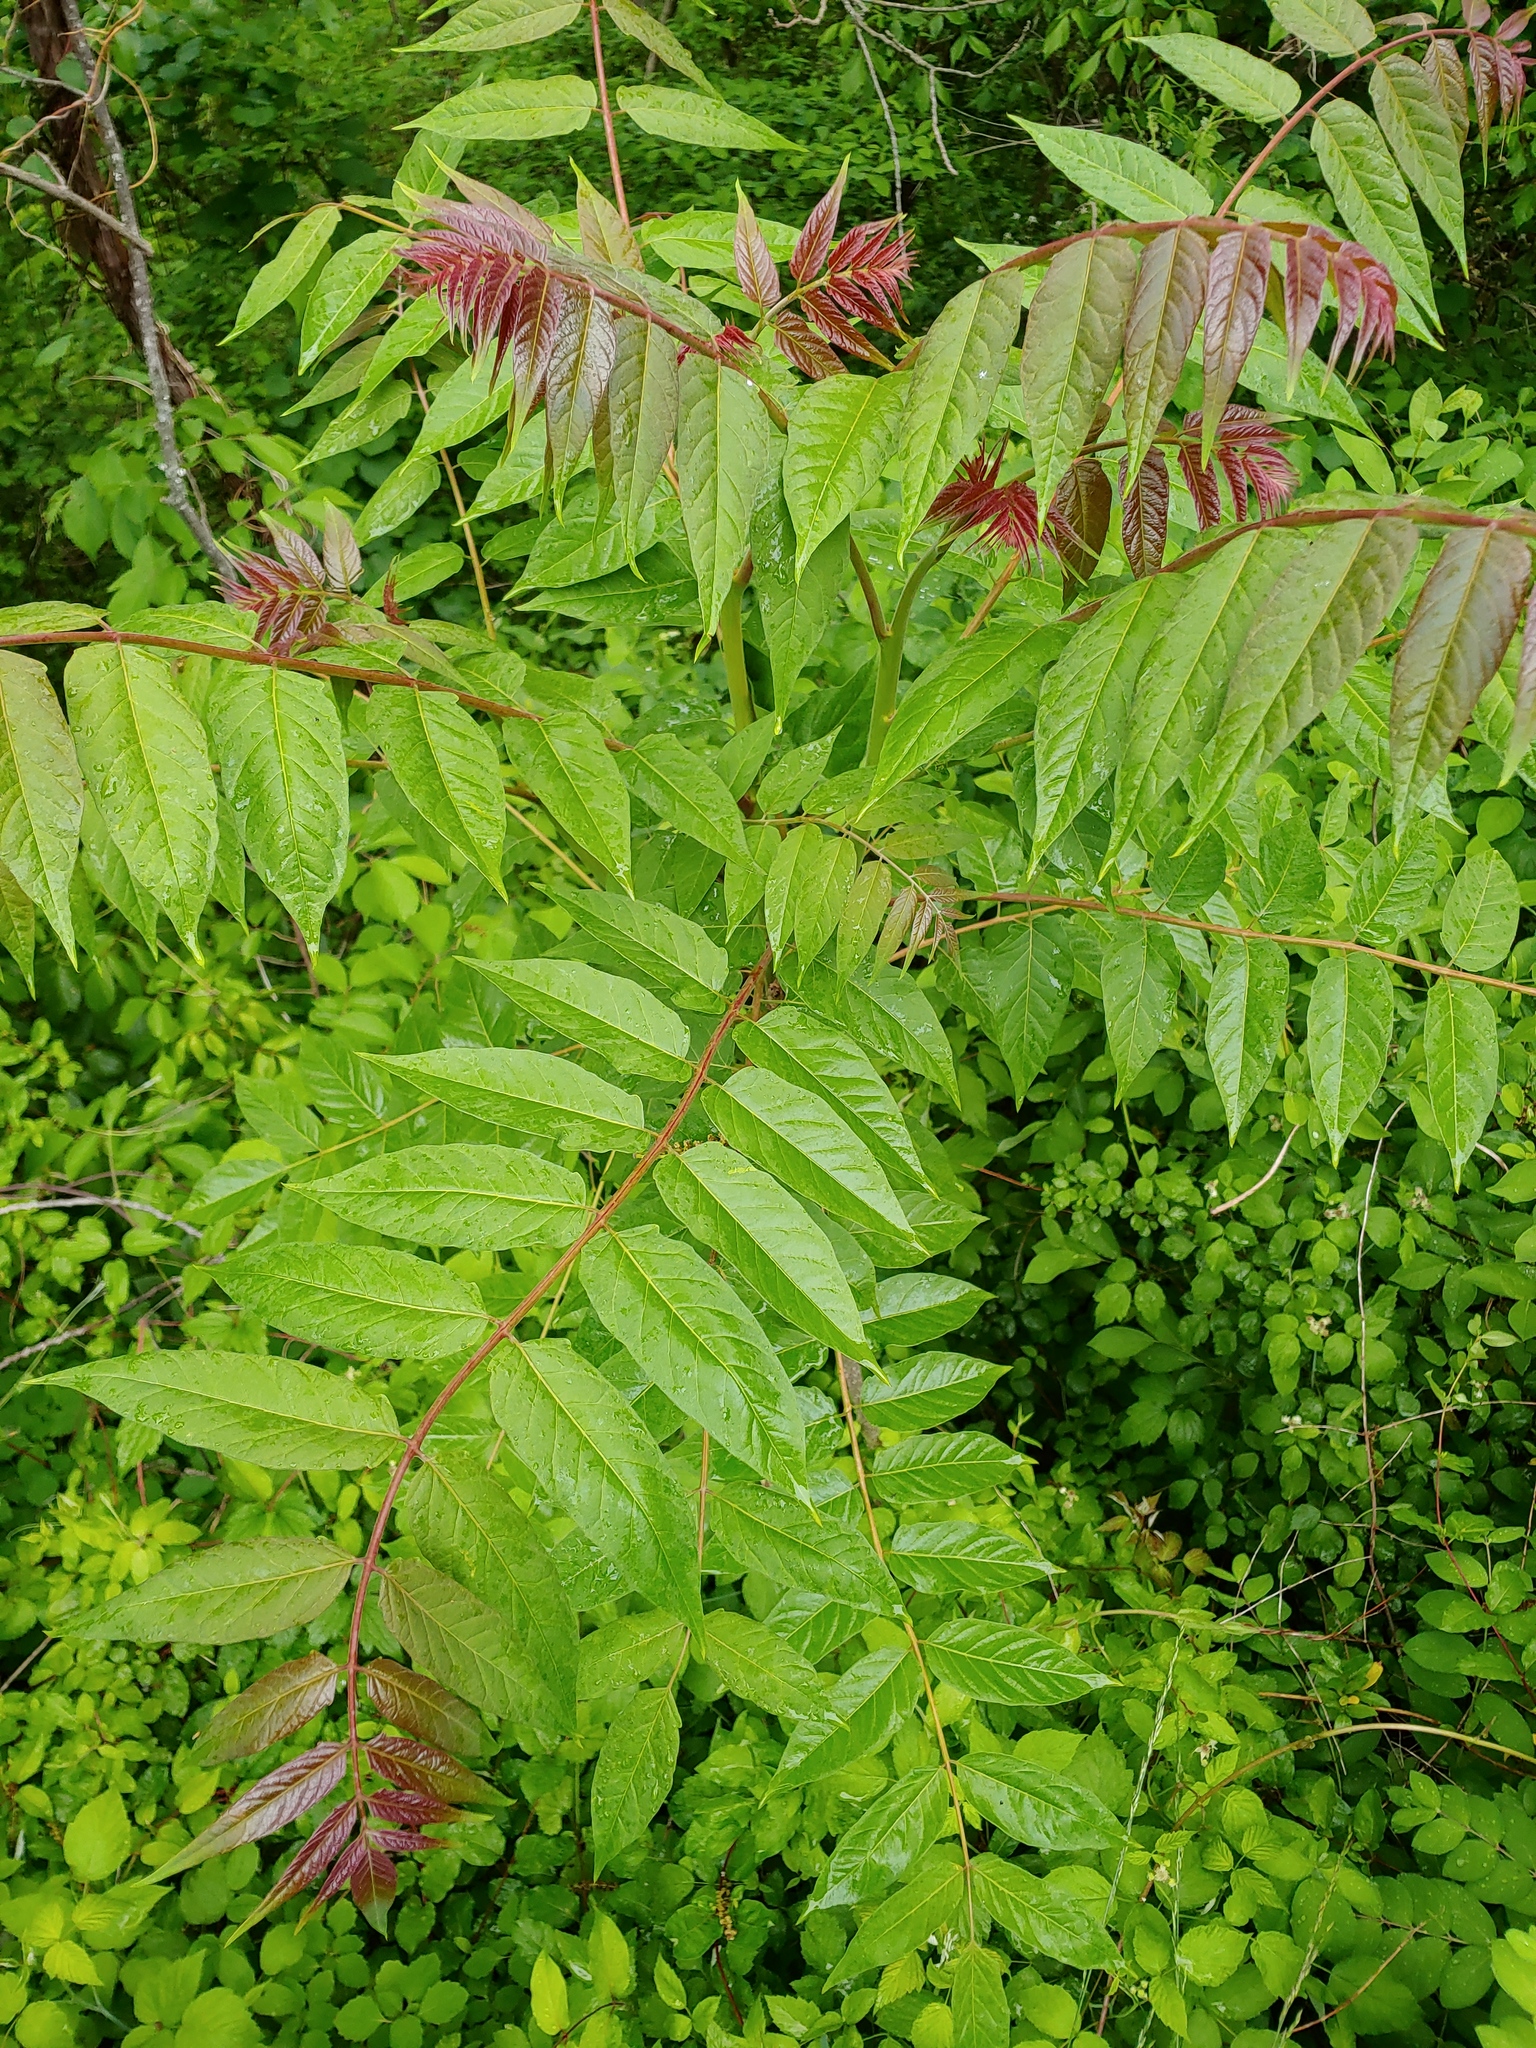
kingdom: Plantae
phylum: Tracheophyta
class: Magnoliopsida
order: Sapindales
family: Simaroubaceae
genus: Ailanthus
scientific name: Ailanthus altissima
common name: Tree-of-heaven
